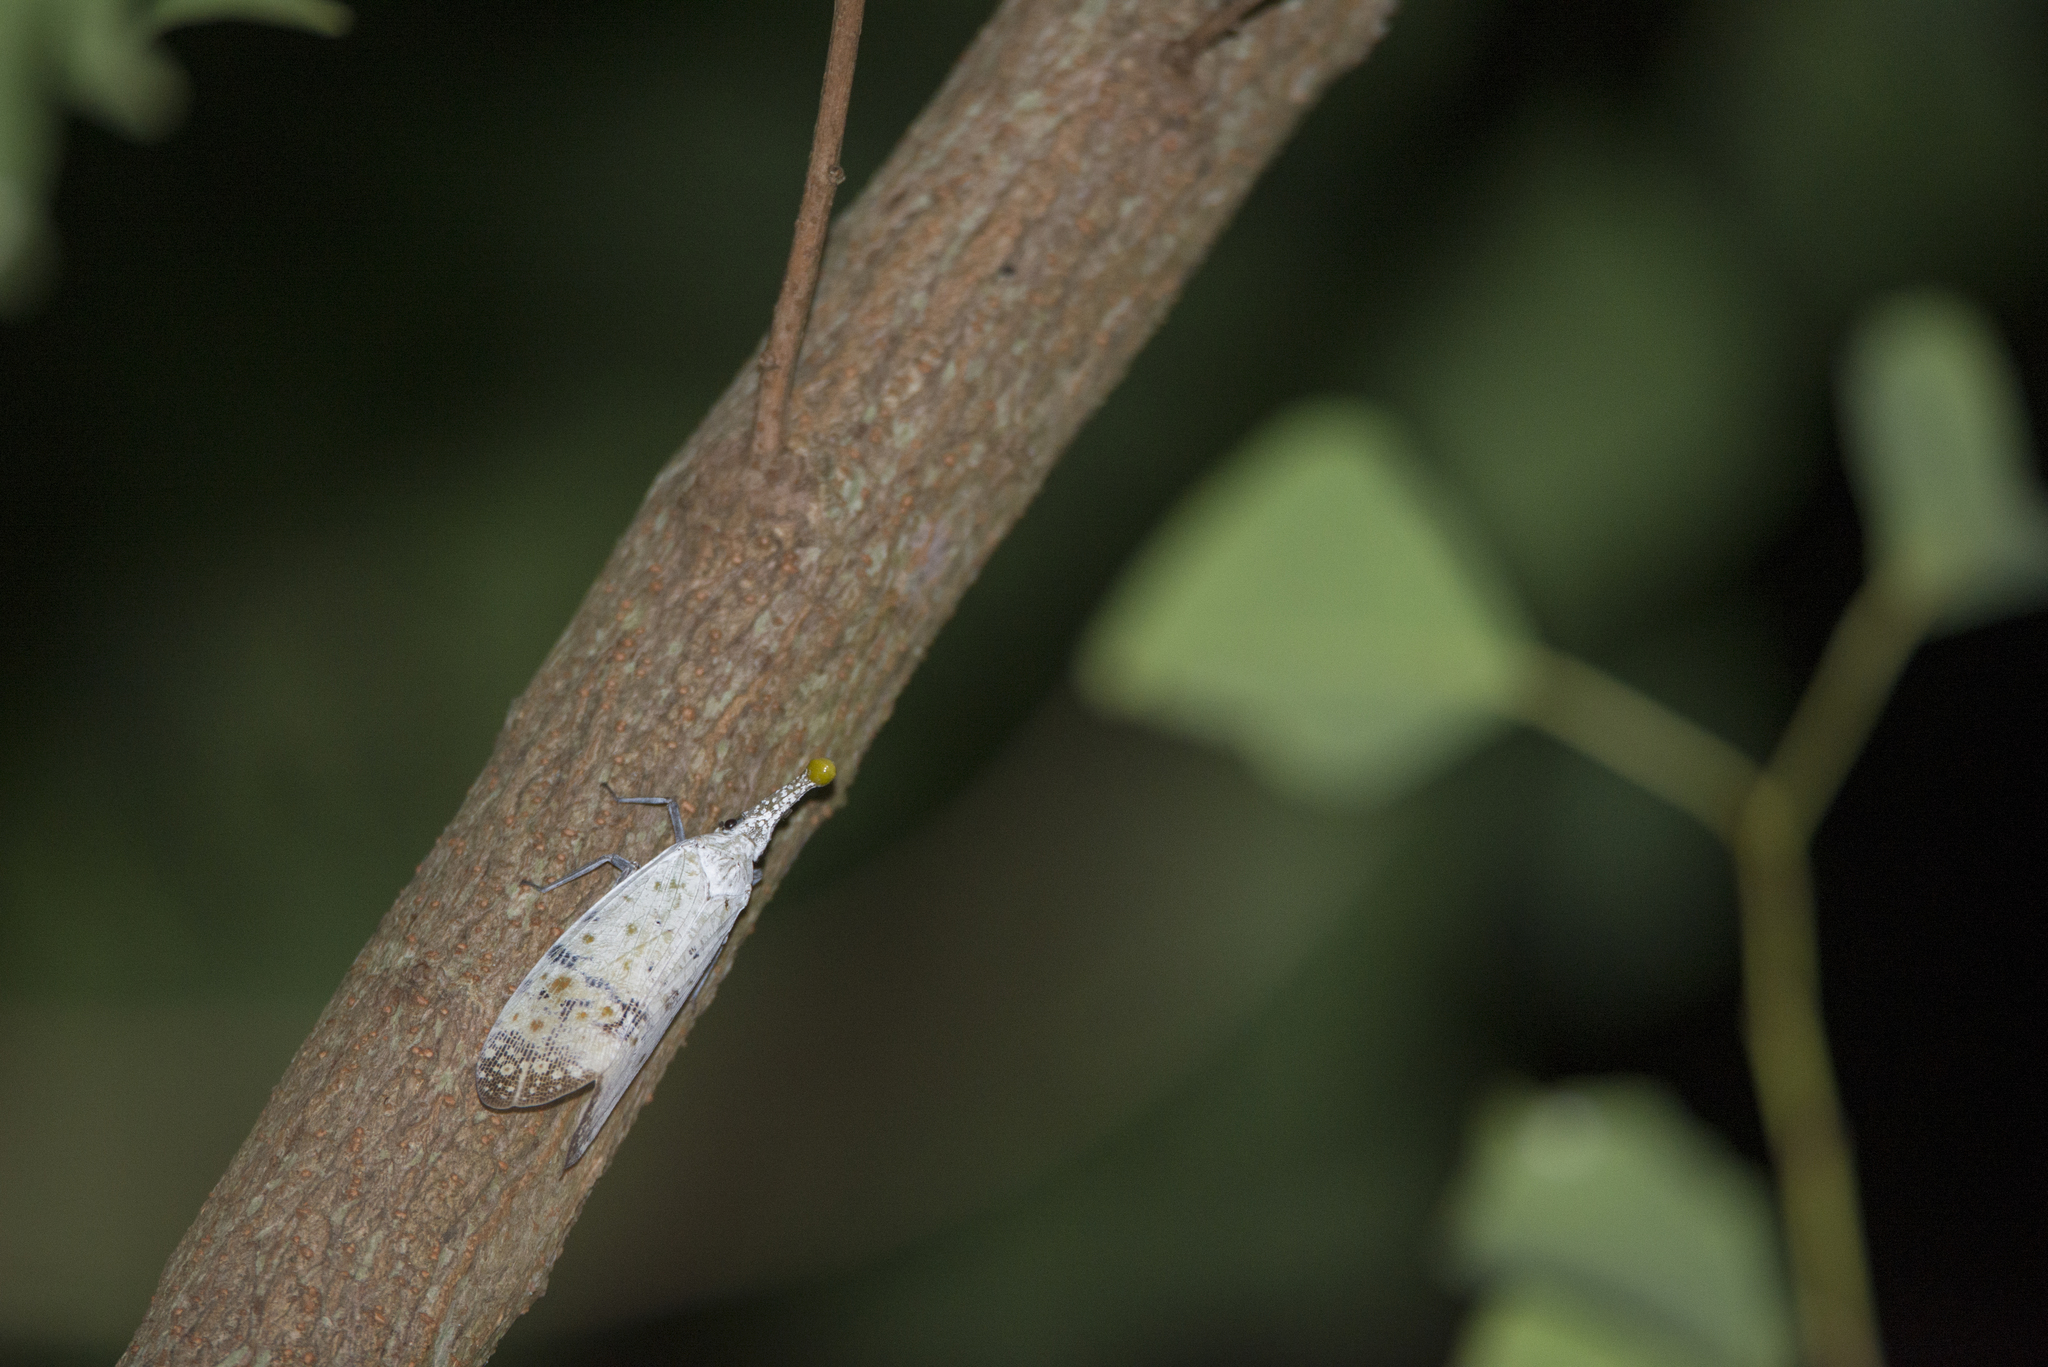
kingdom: Animalia
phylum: Arthropoda
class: Insecta
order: Hemiptera
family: Fulgoridae
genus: Pyrops
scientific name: Pyrops watanabei
